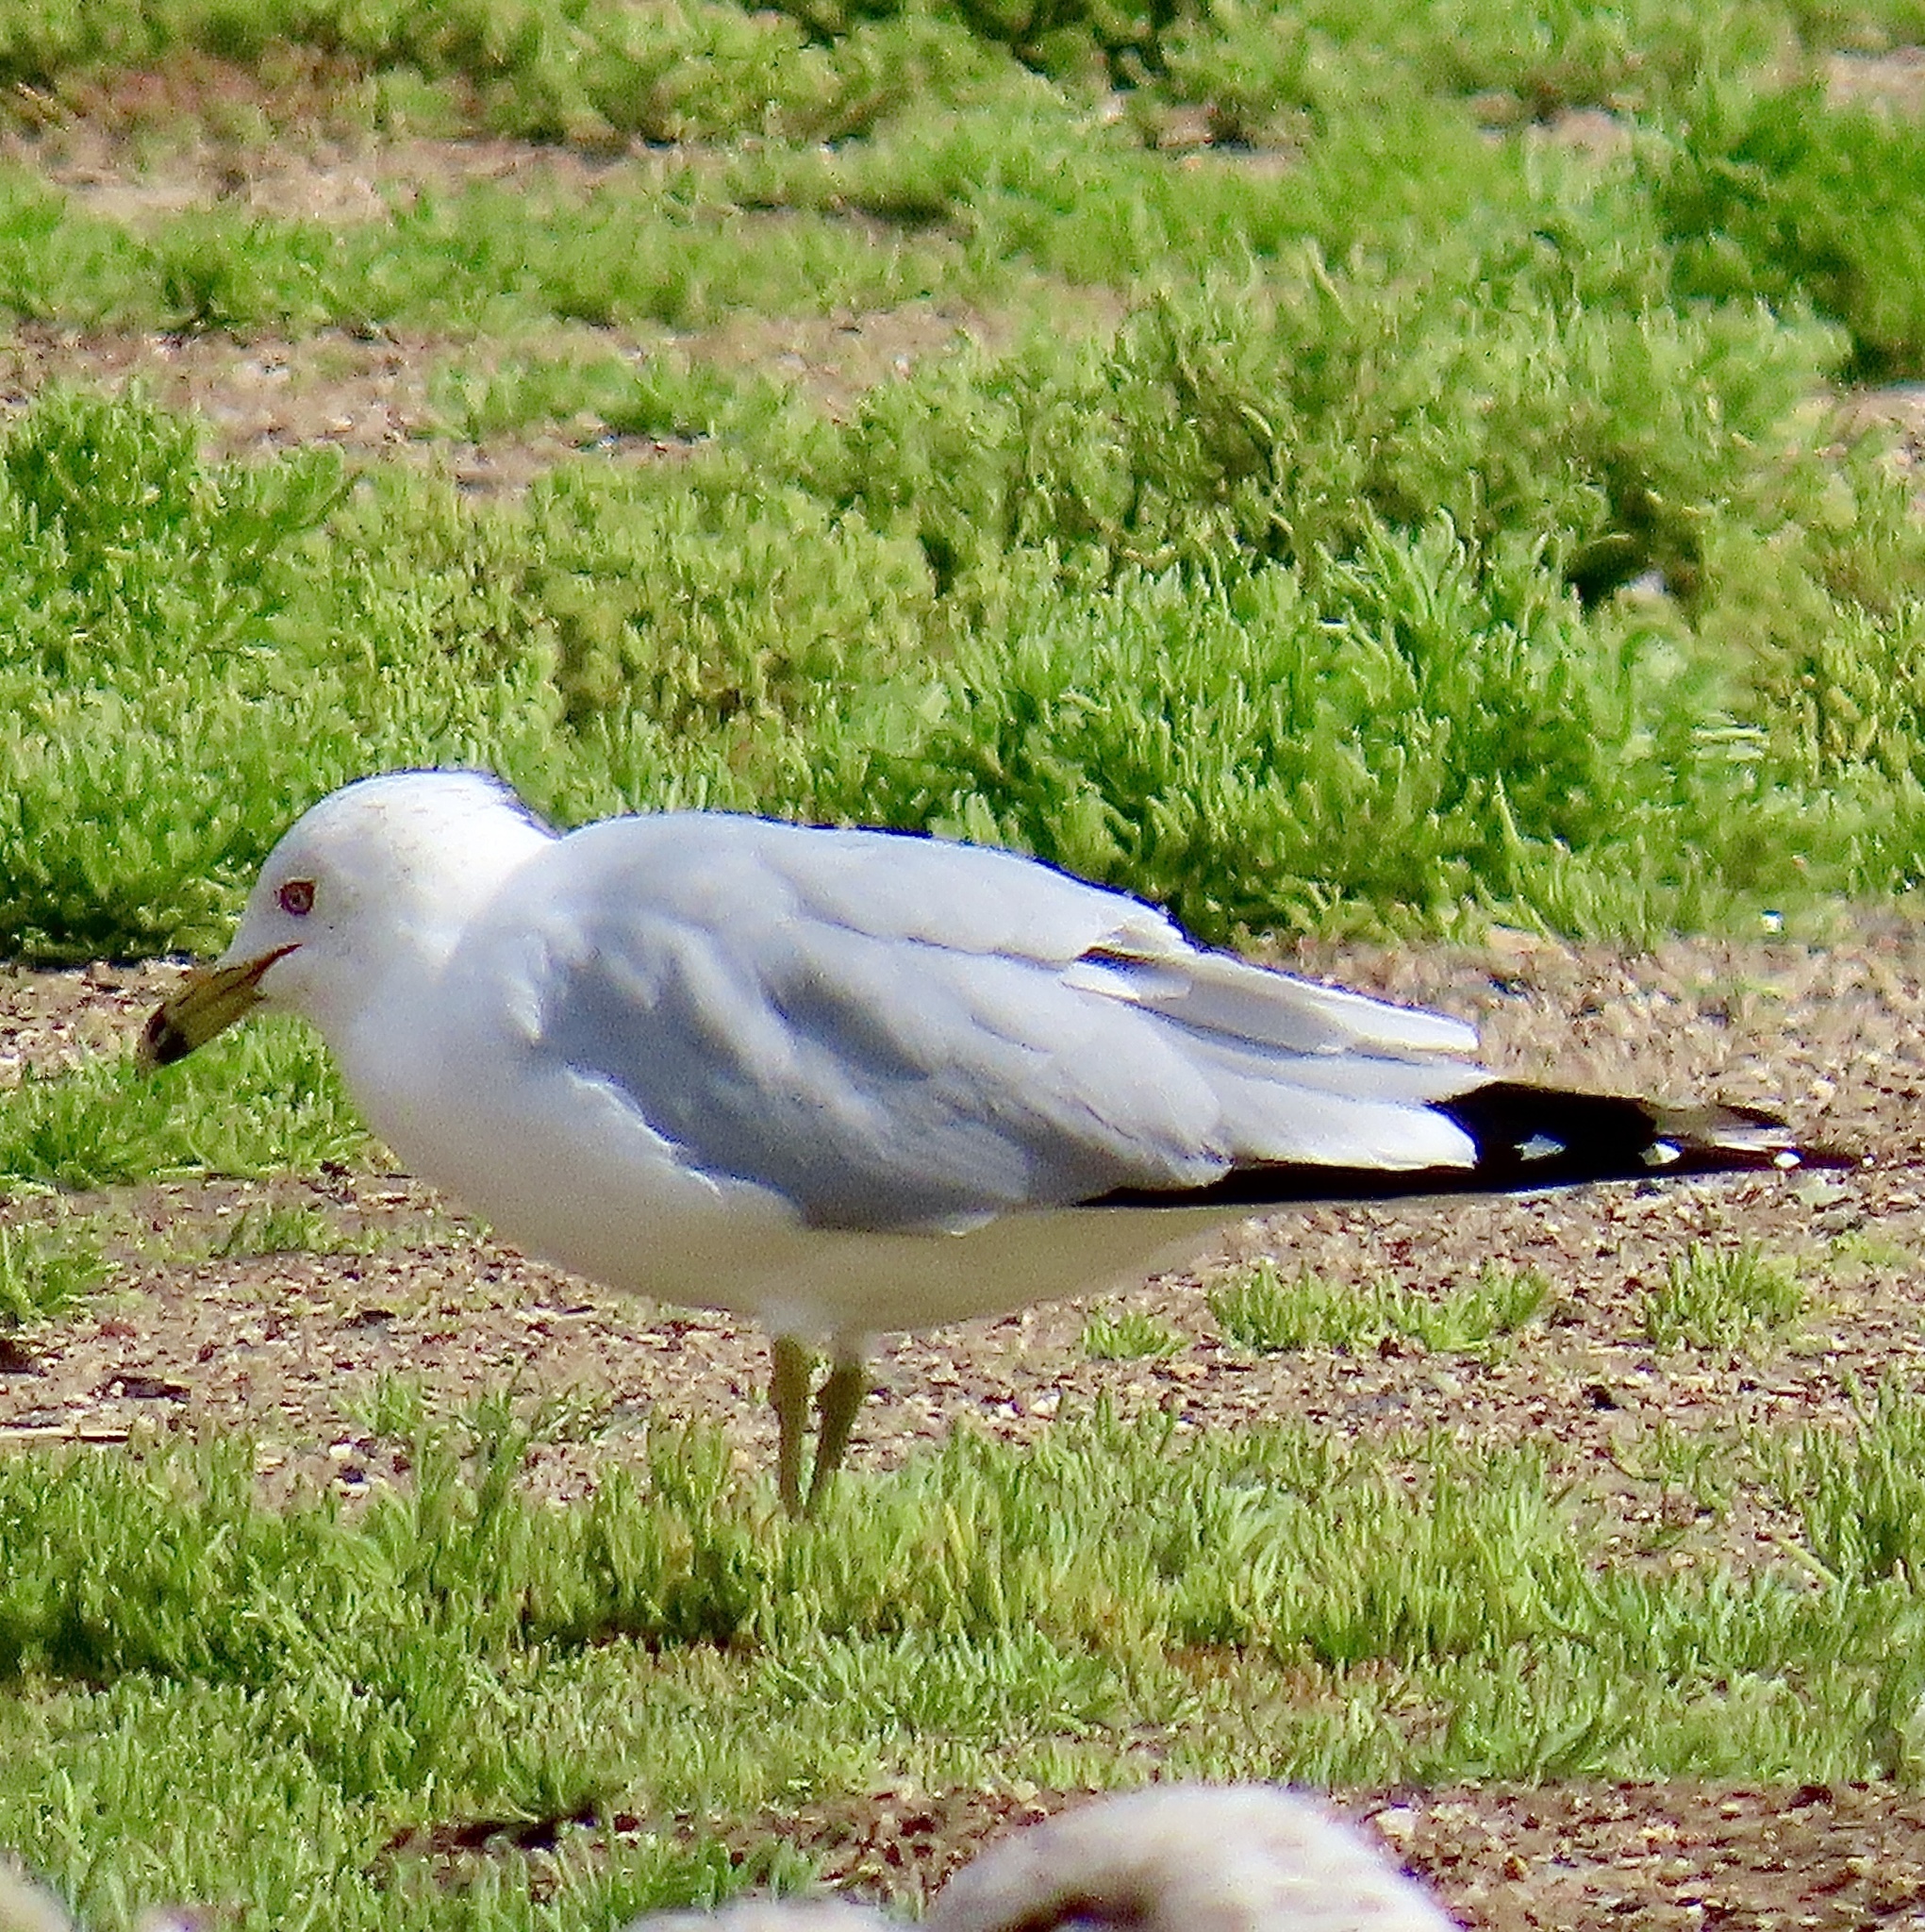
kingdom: Animalia
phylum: Chordata
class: Aves
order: Charadriiformes
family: Laridae
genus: Larus
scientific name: Larus delawarensis
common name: Ring-billed gull
